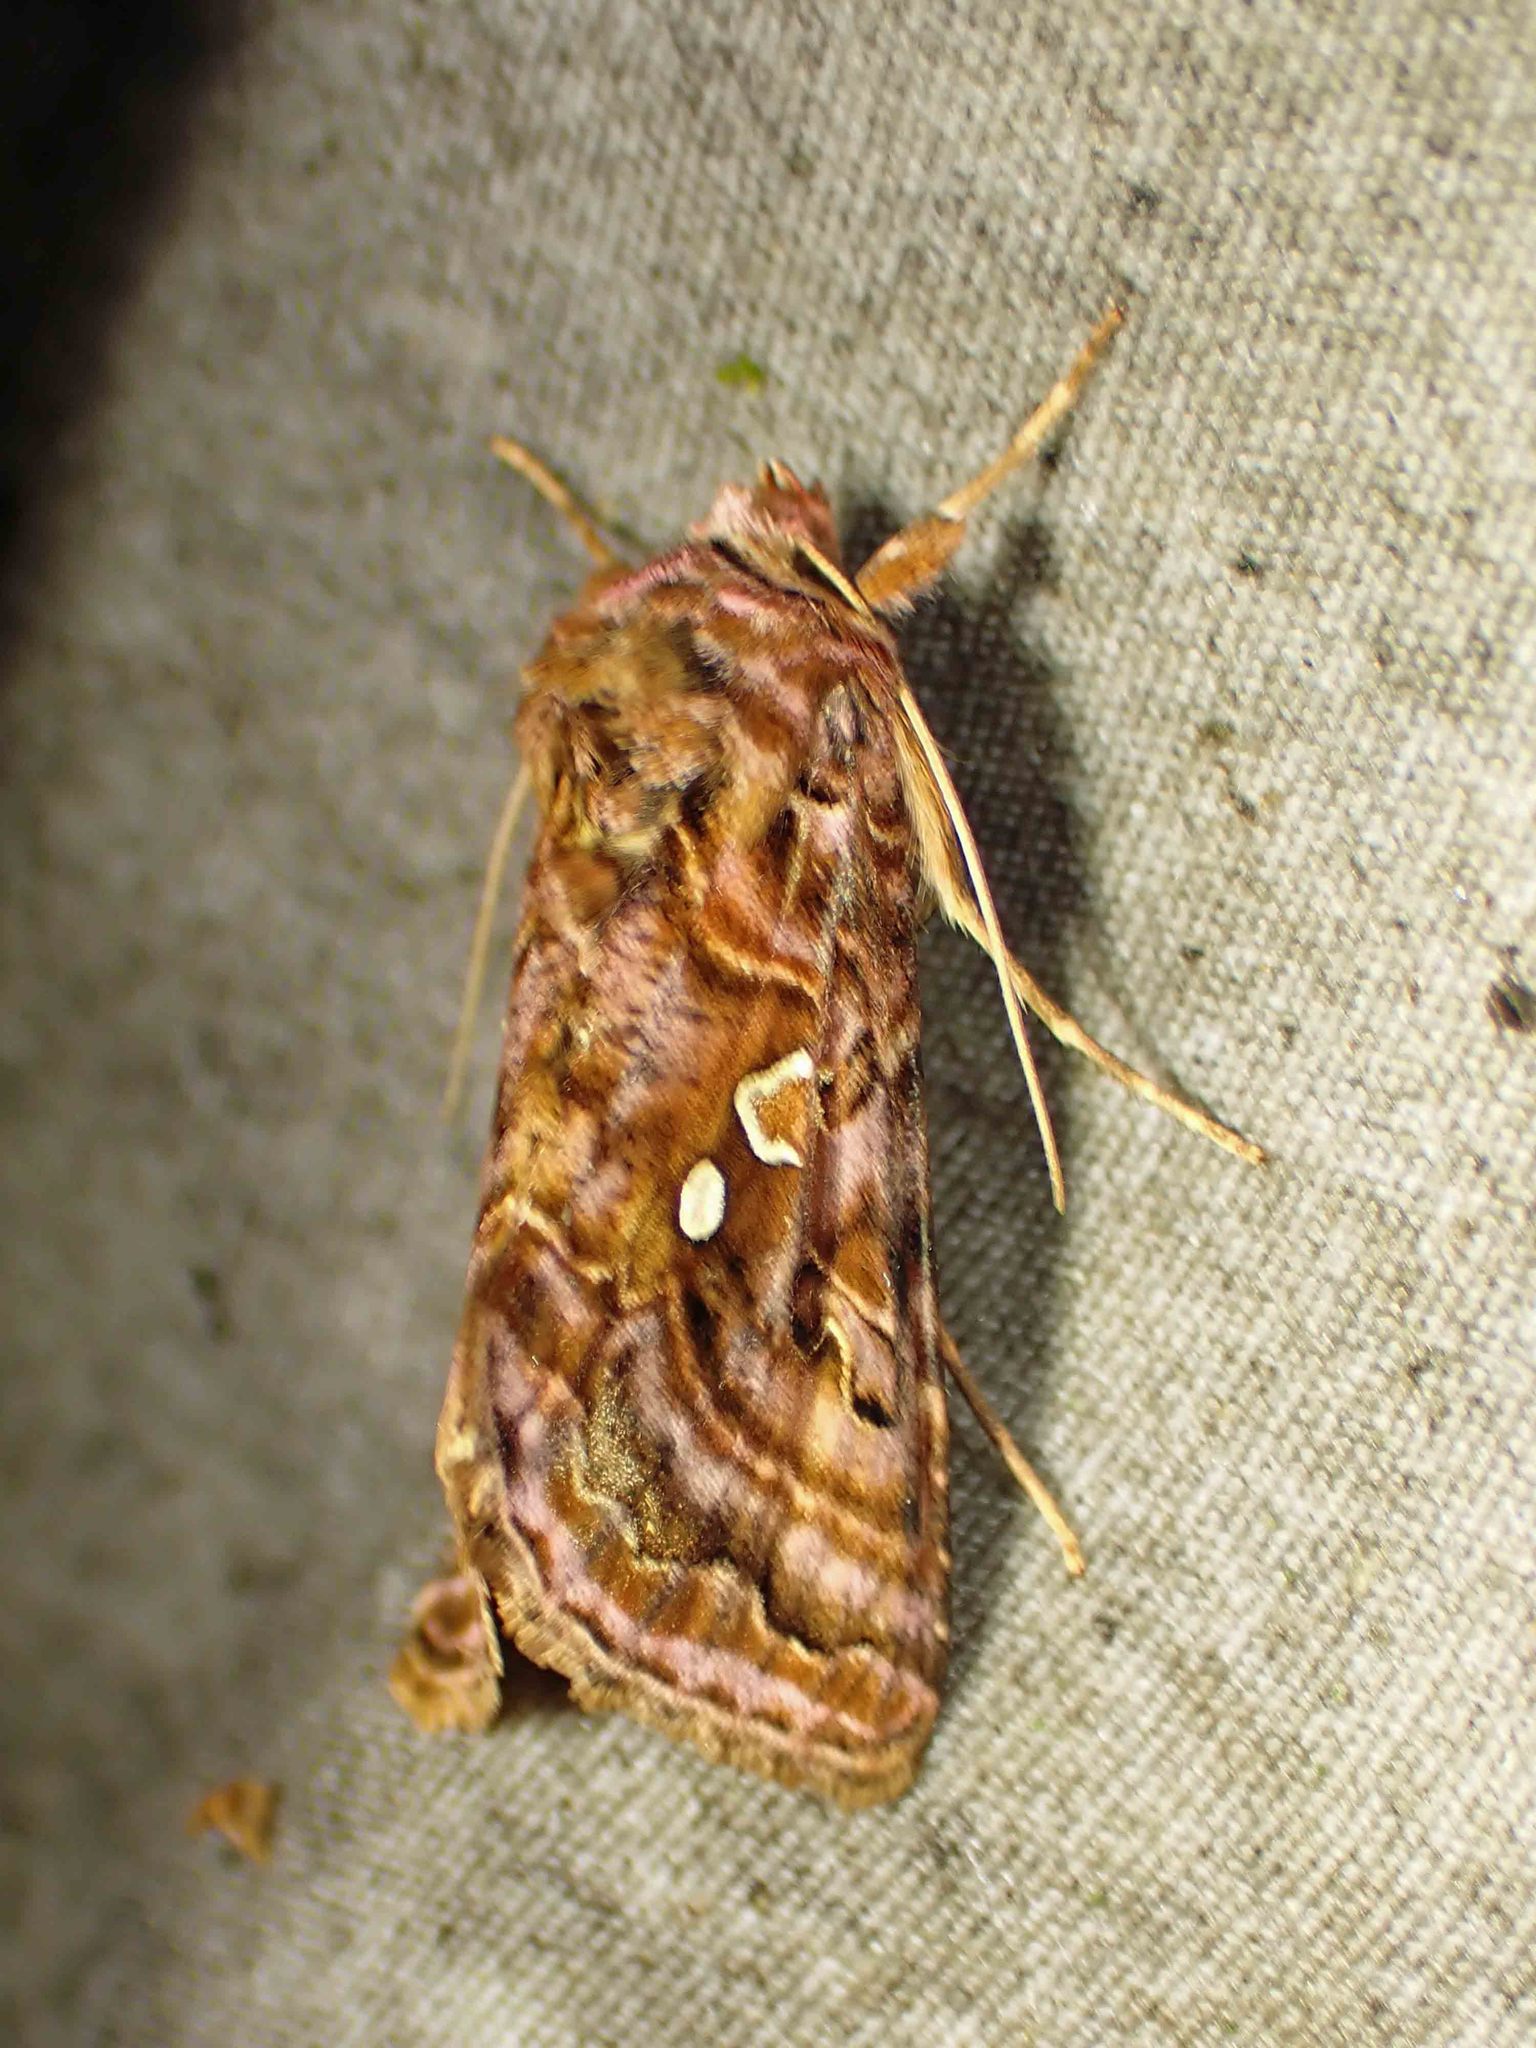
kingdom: Animalia
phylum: Arthropoda
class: Insecta
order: Lepidoptera
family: Noctuidae
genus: Autographa
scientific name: Autographa mappa
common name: Wavy chestnut y moth
